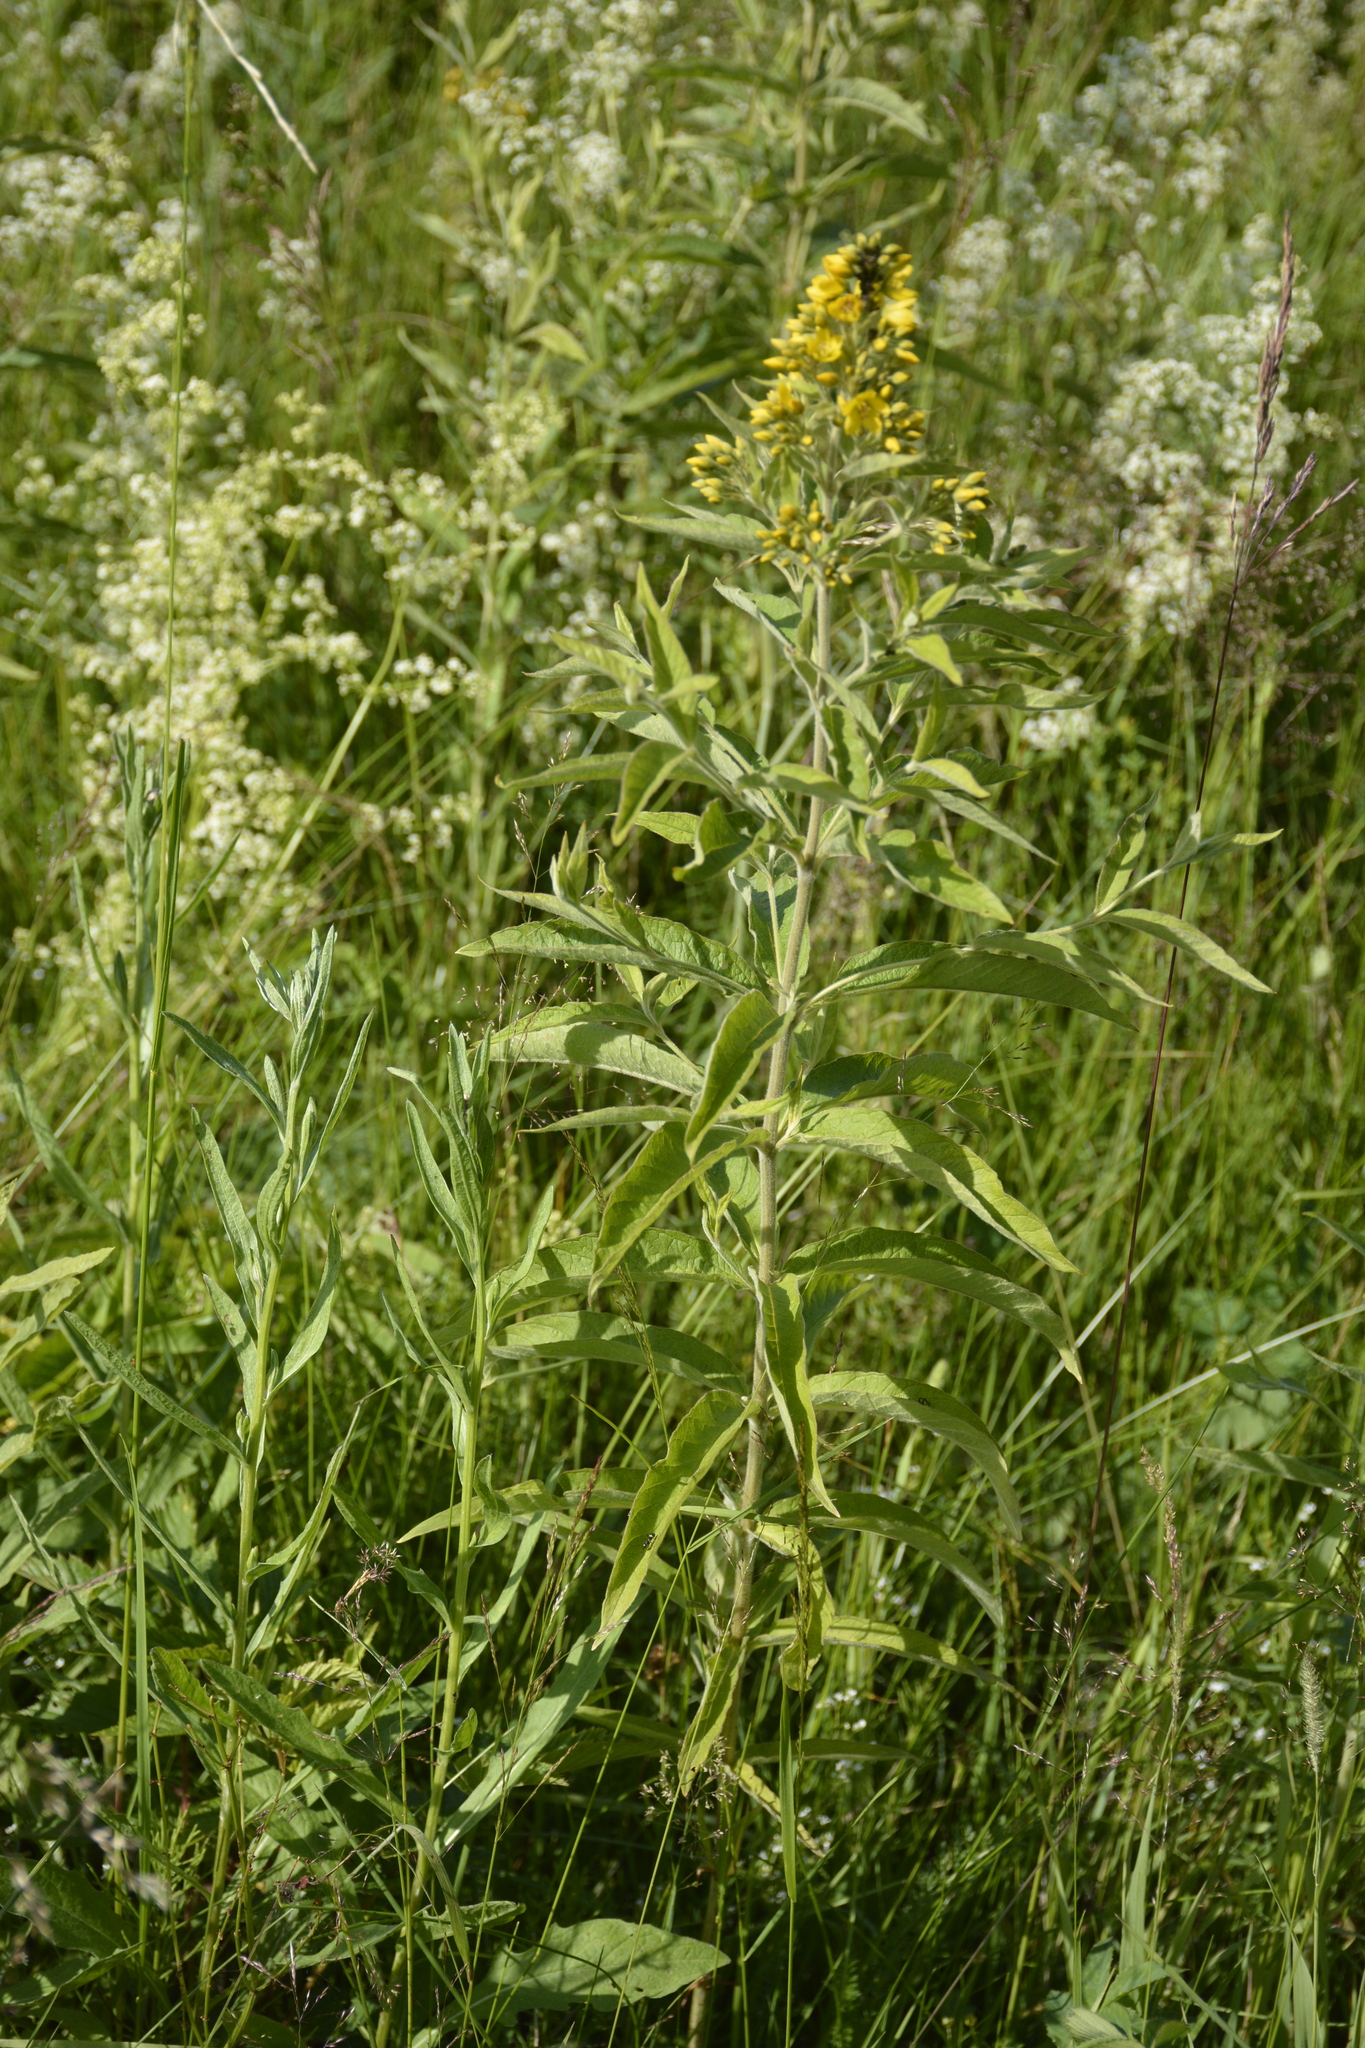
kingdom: Plantae
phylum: Tracheophyta
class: Magnoliopsida
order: Ericales
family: Primulaceae
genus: Lysimachia
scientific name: Lysimachia vulgaris
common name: Yellow loosestrife
